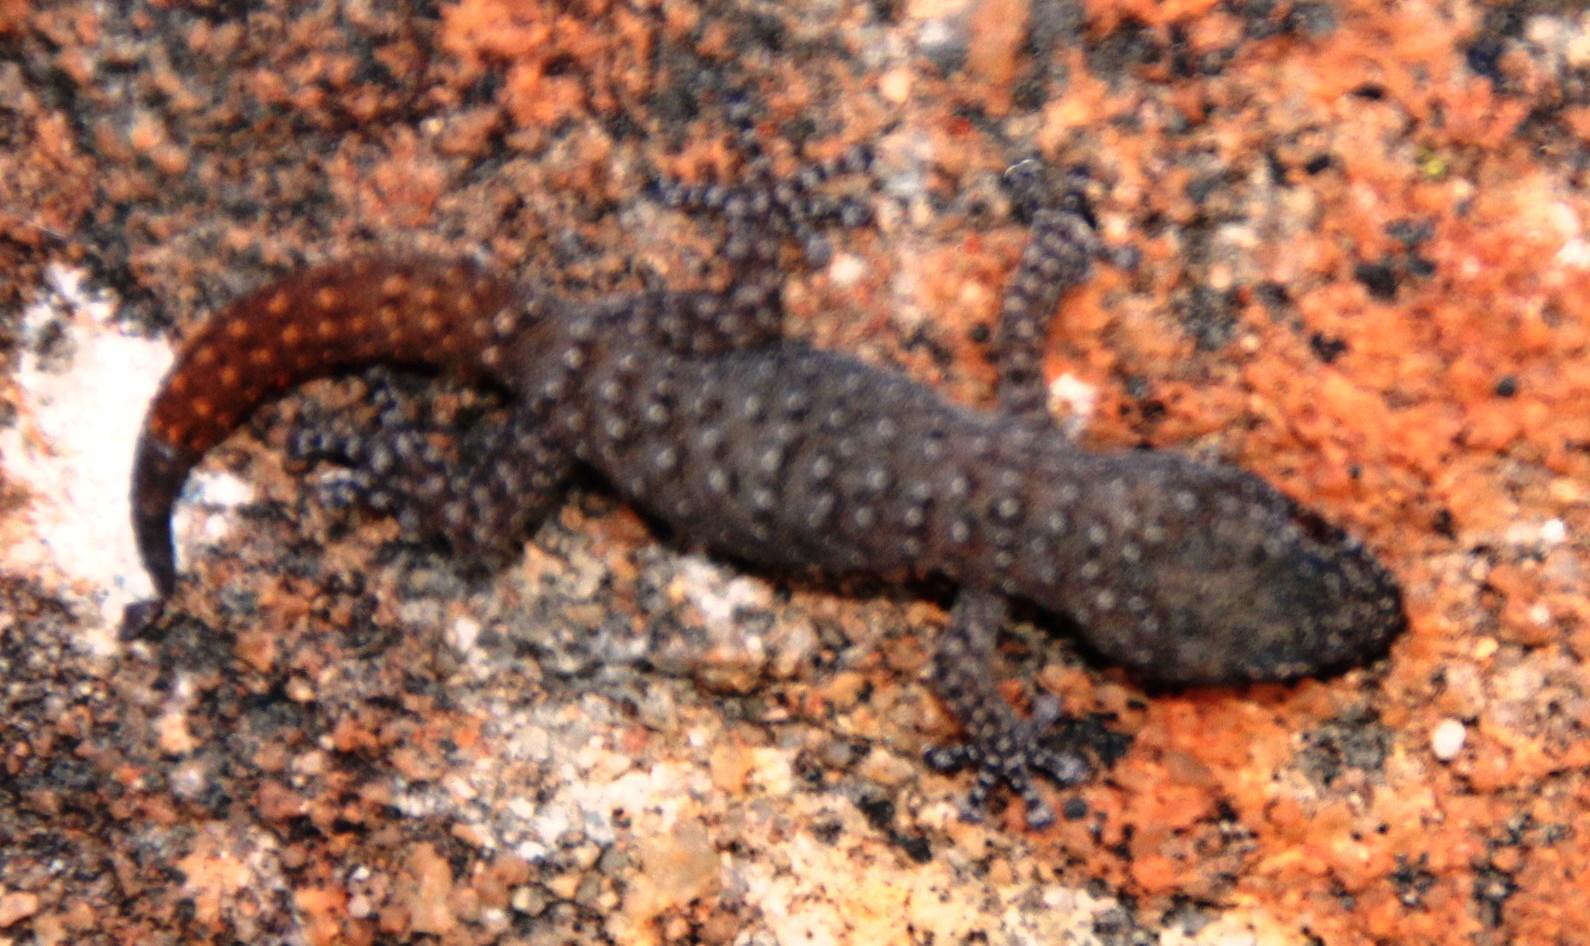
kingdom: Animalia
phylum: Chordata
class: Squamata
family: Gekkonidae
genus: Goggia
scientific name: Goggia hexapora
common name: Cedarberg dwarf leaf-toed gecko
